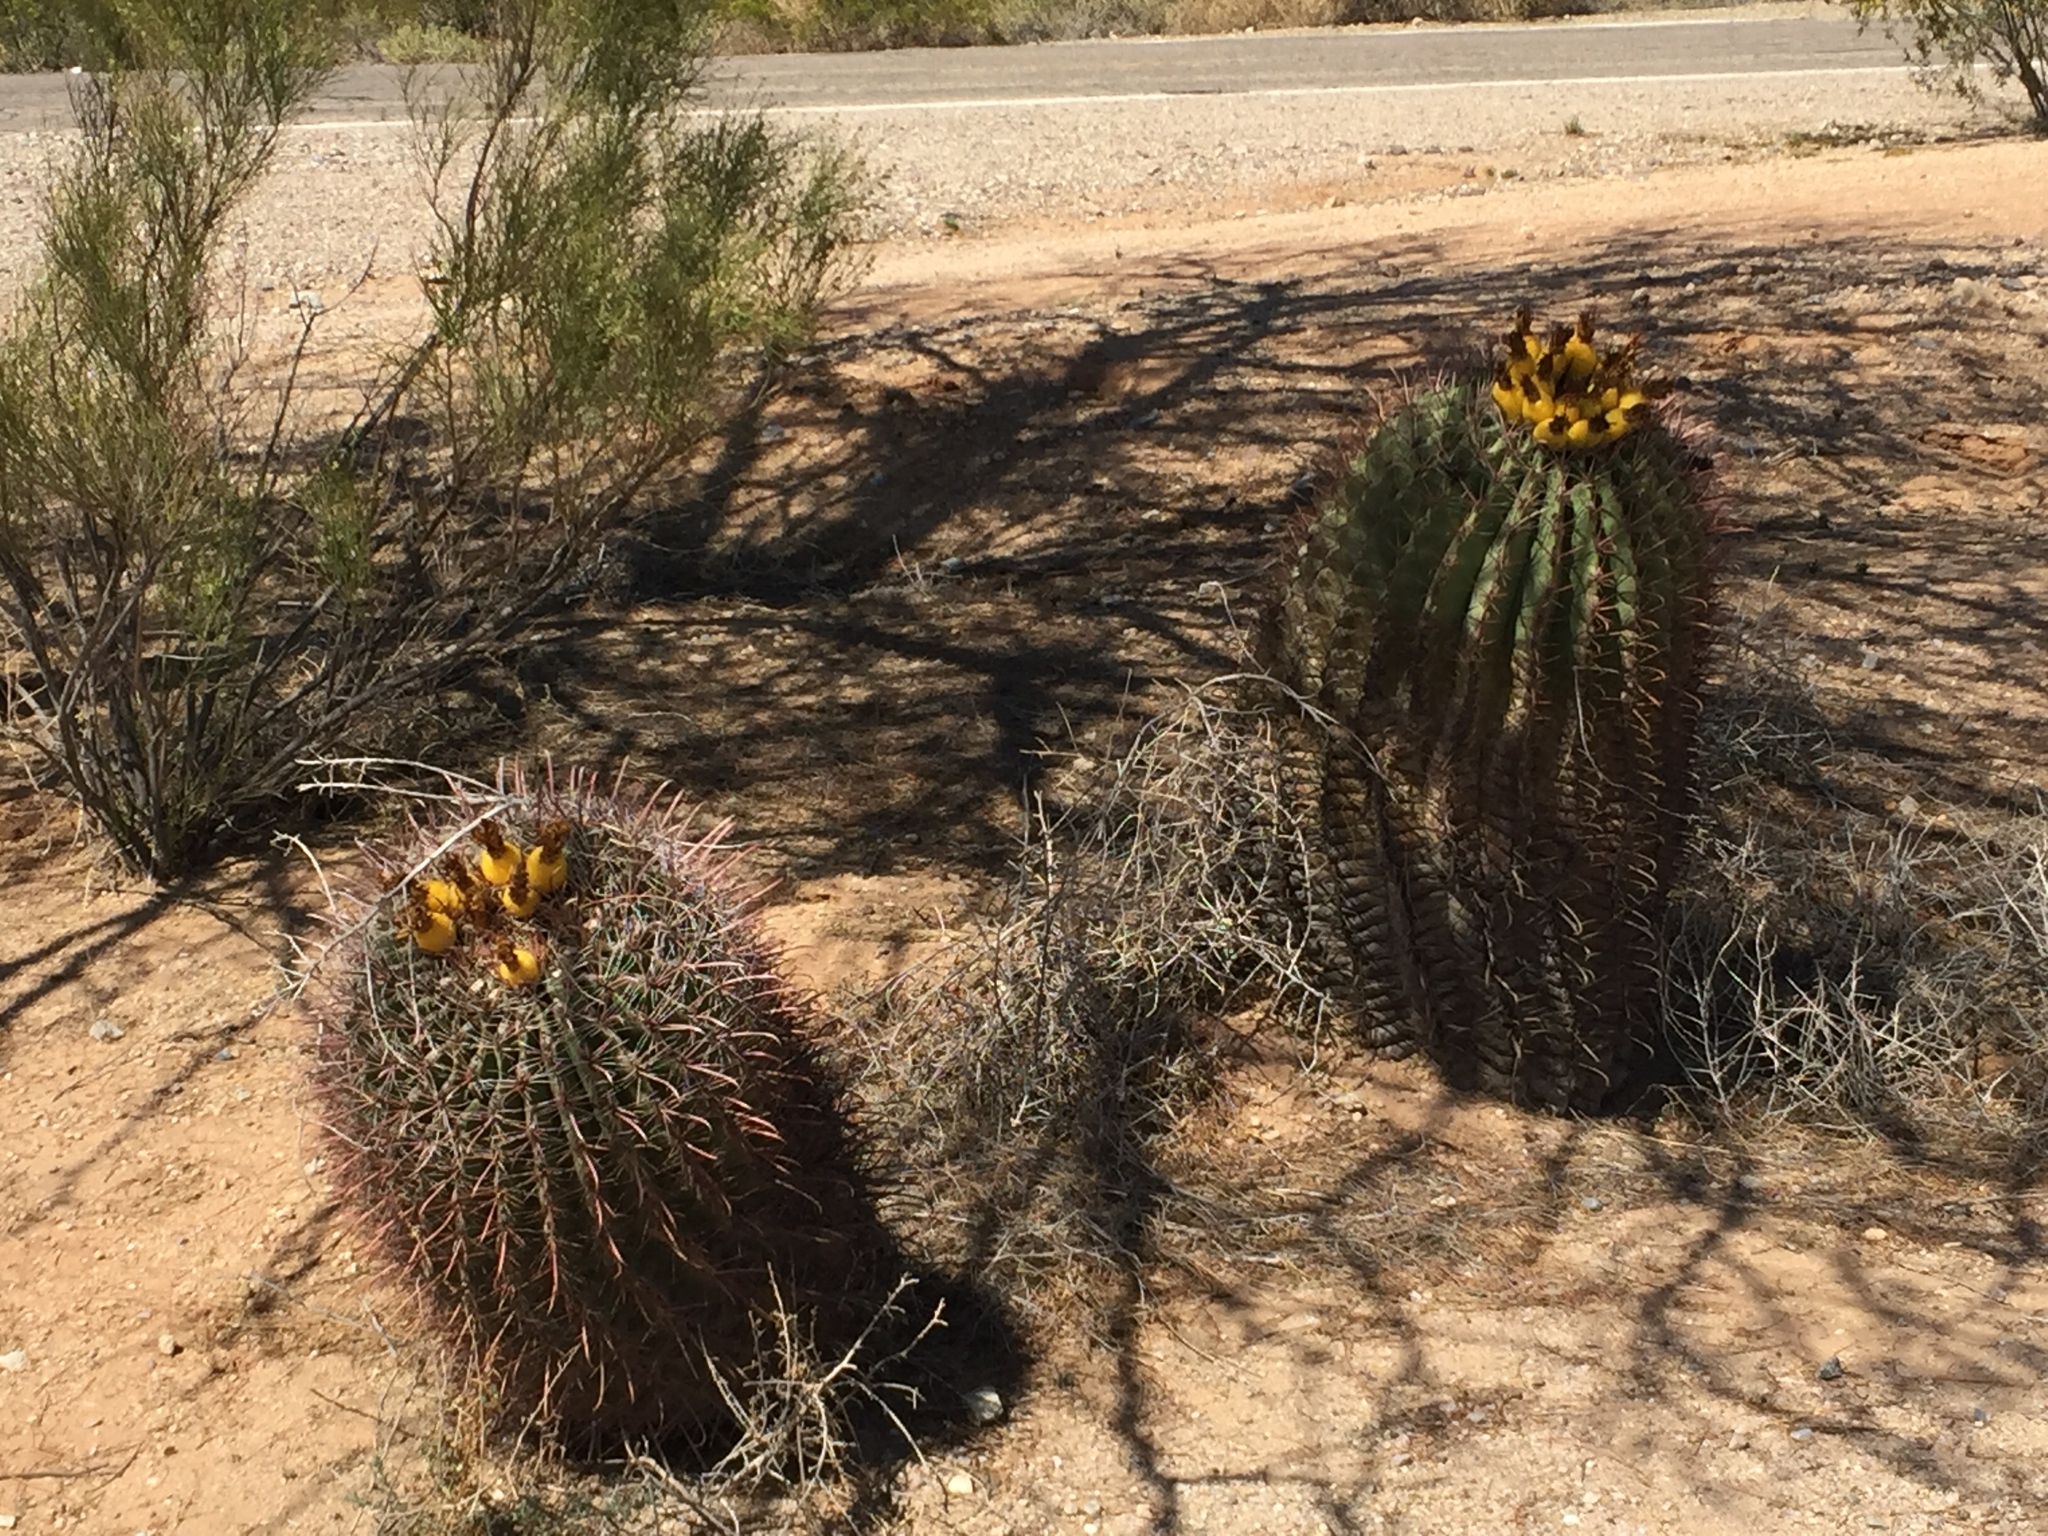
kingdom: Plantae
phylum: Tracheophyta
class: Magnoliopsida
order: Caryophyllales
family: Cactaceae
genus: Ferocactus
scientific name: Ferocactus wislizeni
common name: Candy barrel cactus
